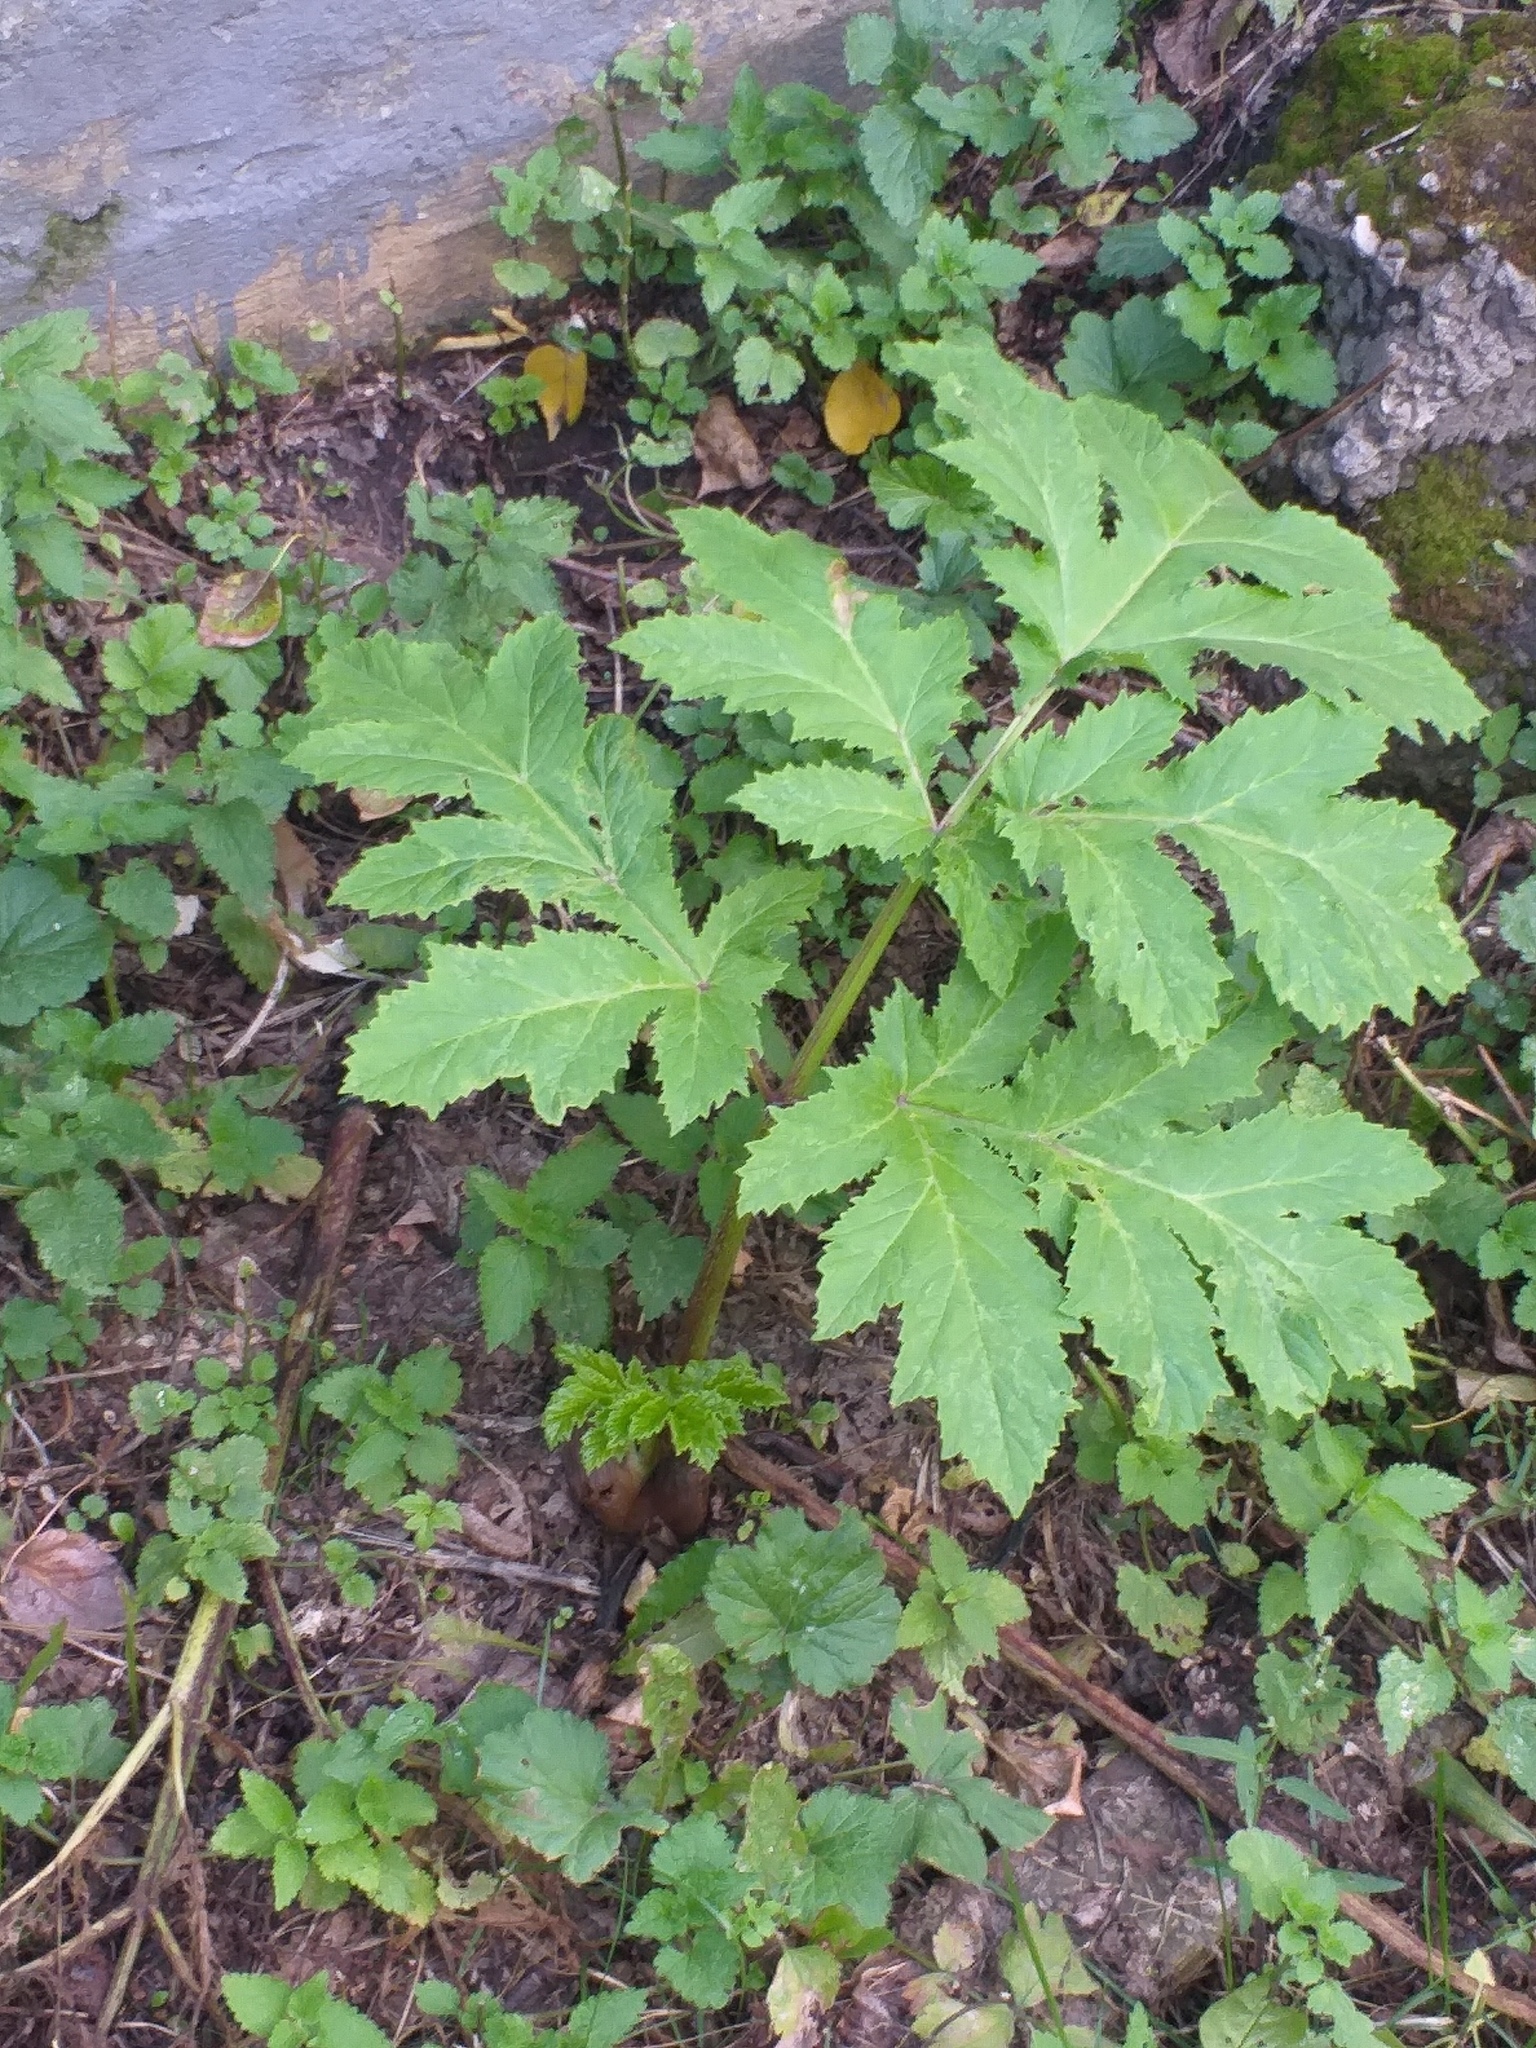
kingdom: Plantae
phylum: Tracheophyta
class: Magnoliopsida
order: Apiales
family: Apiaceae
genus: Heracleum
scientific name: Heracleum sosnowskyi
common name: Sosnowsky's hogweed
